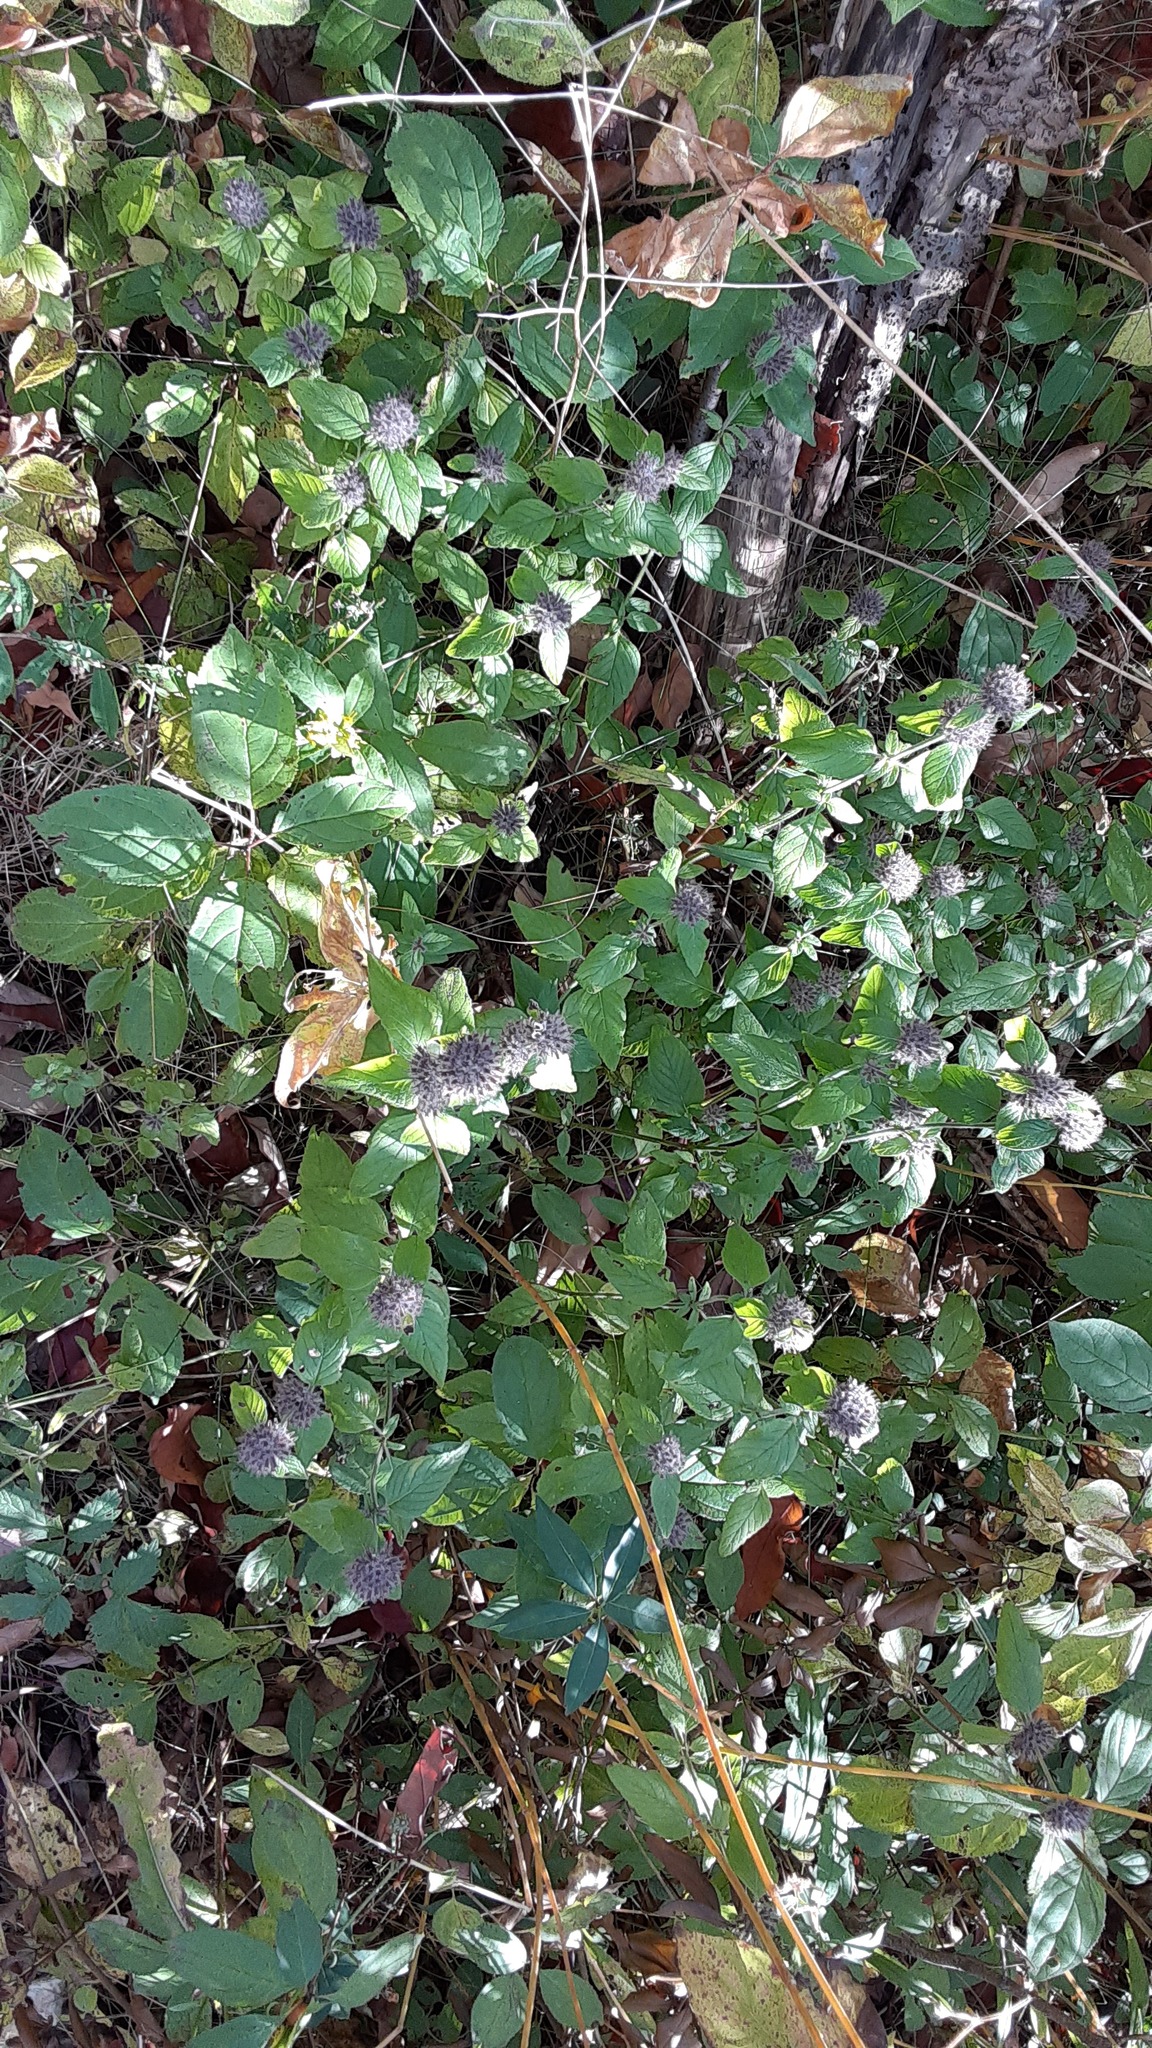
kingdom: Plantae
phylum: Tracheophyta
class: Magnoliopsida
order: Lamiales
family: Lamiaceae
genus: Clinopodium
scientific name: Clinopodium vulgare
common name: Wild basil
